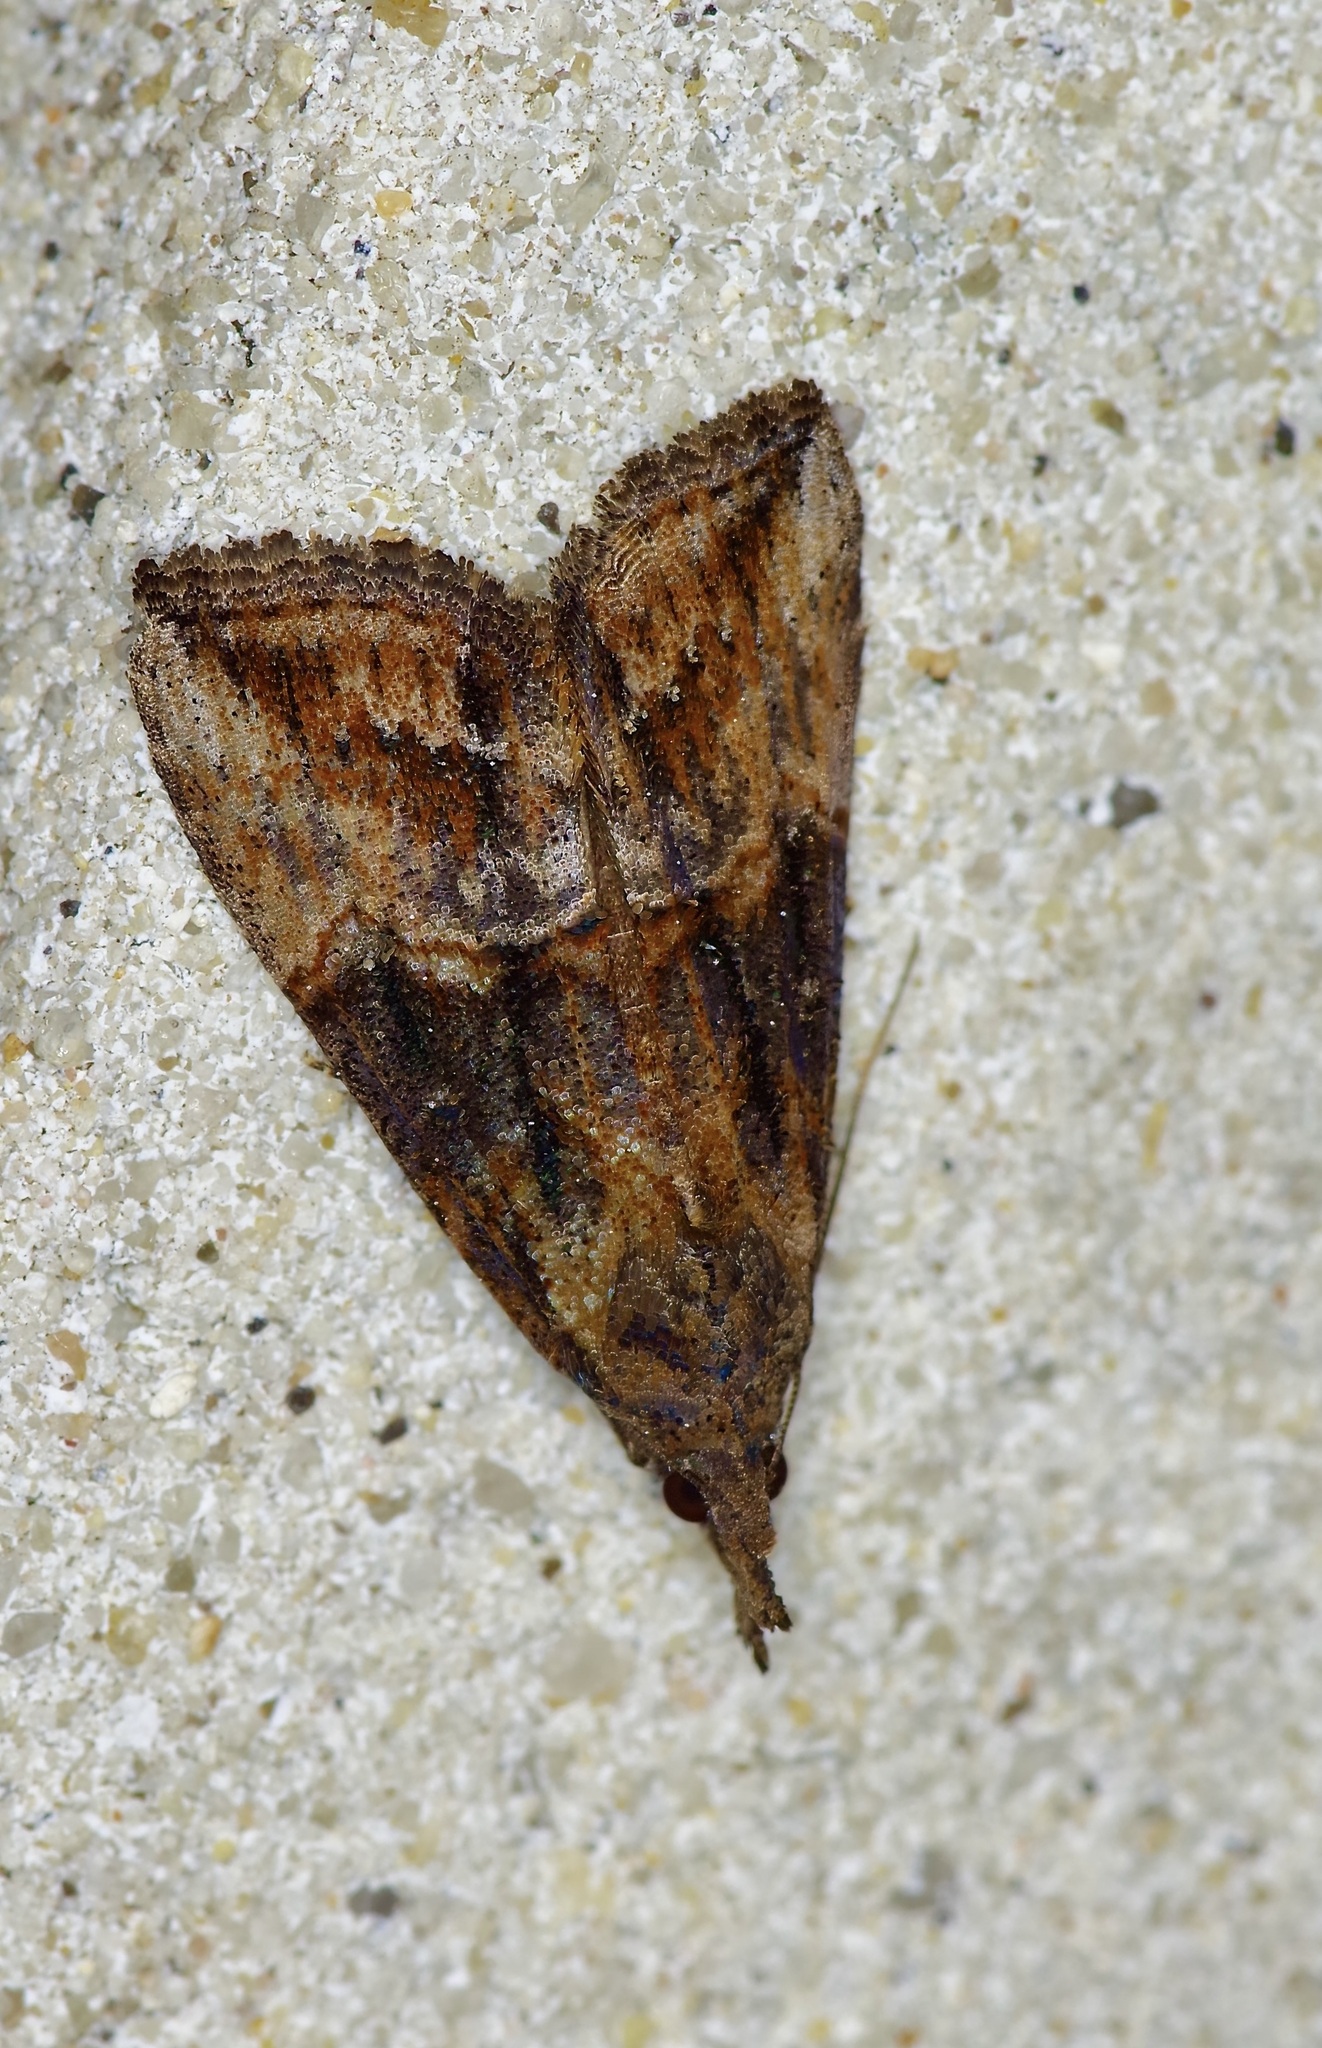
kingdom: Animalia
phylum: Arthropoda
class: Insecta
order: Lepidoptera
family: Erebidae
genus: Hypena
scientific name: Hypena scabra
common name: Green cloverworm
